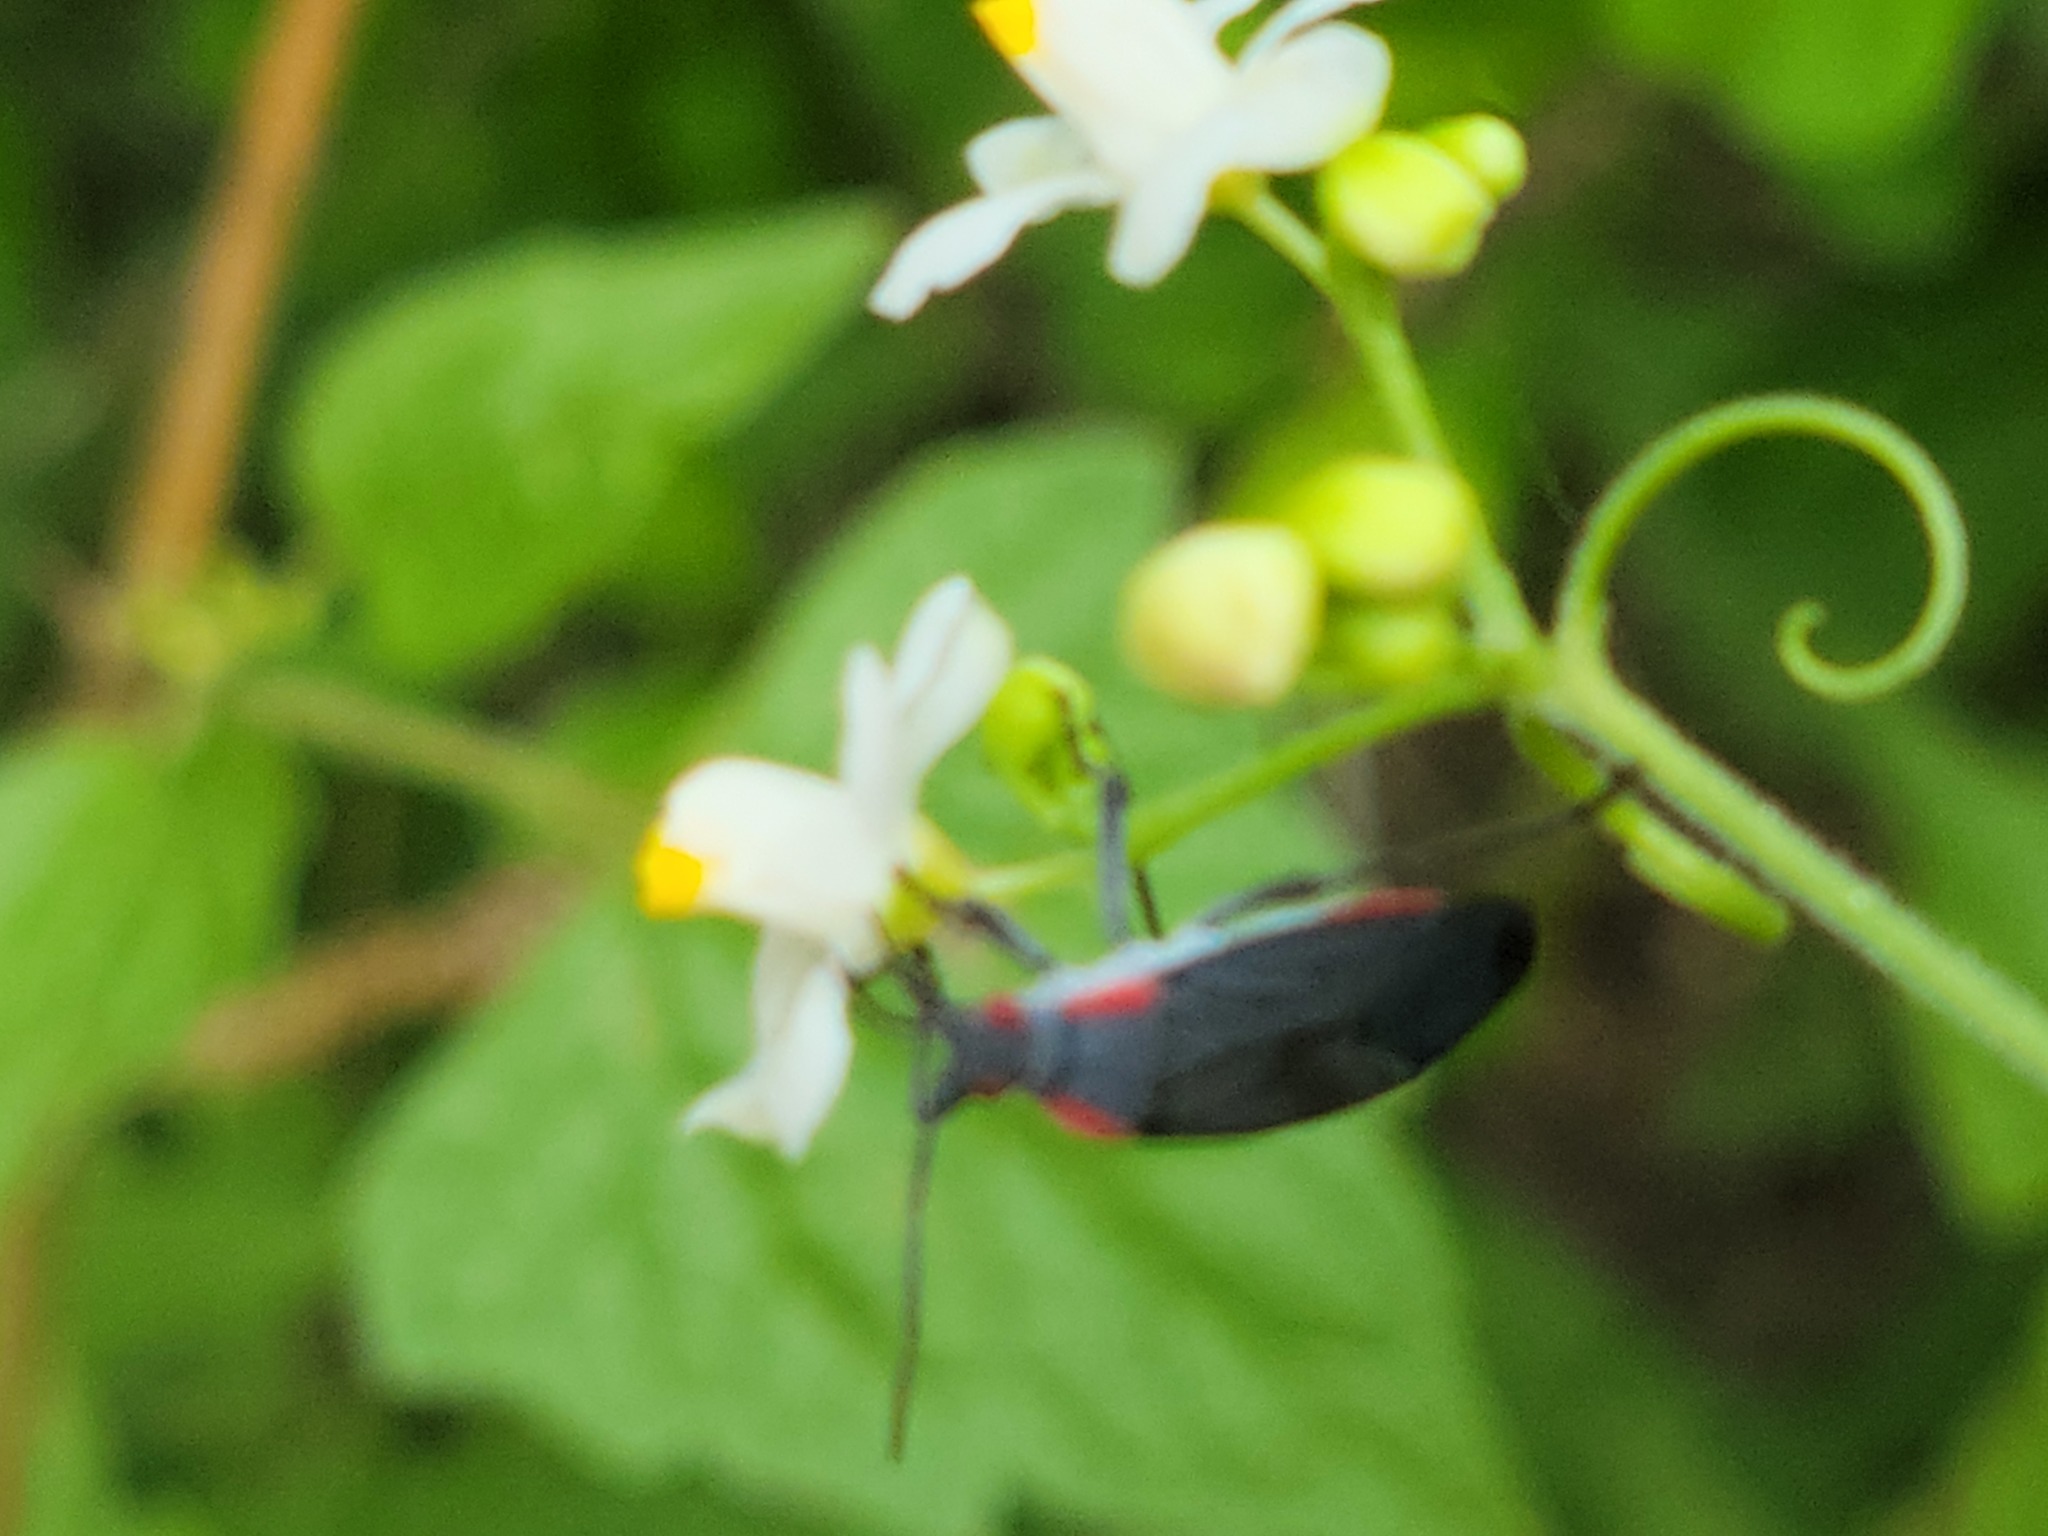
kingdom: Animalia
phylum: Arthropoda
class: Insecta
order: Hemiptera
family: Rhopalidae
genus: Jadera
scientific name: Jadera haematoloma
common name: Red-shouldered bug
